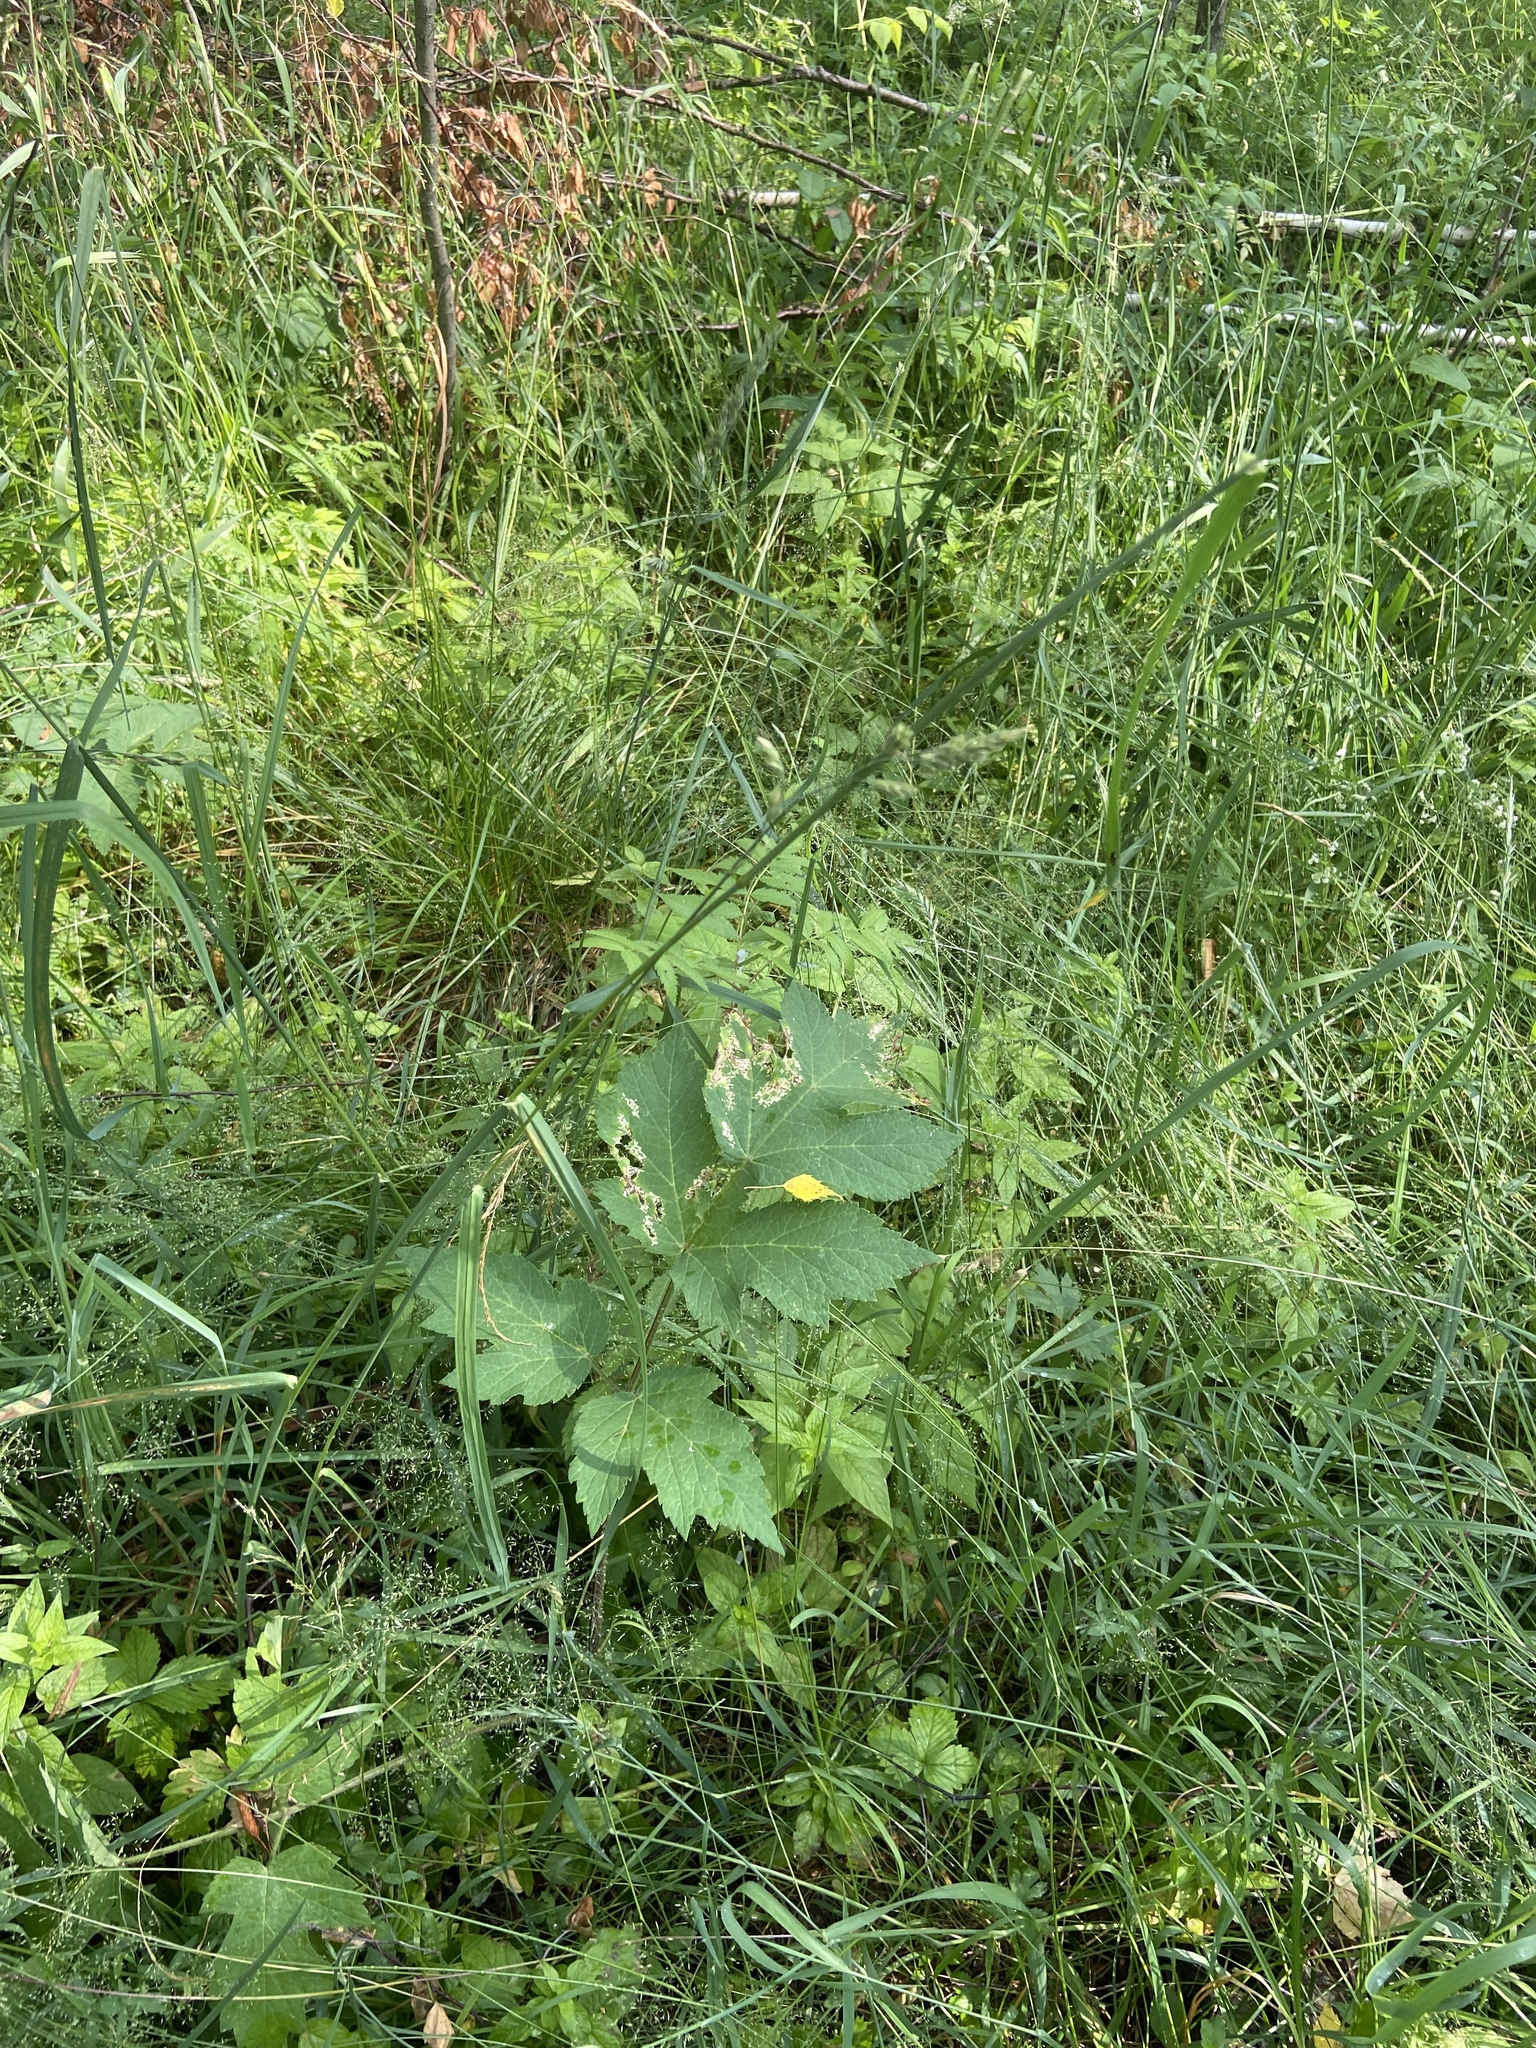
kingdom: Plantae
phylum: Tracheophyta
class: Magnoliopsida
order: Apiales
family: Apiaceae
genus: Heracleum
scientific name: Heracleum sphondylium
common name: Hogweed
